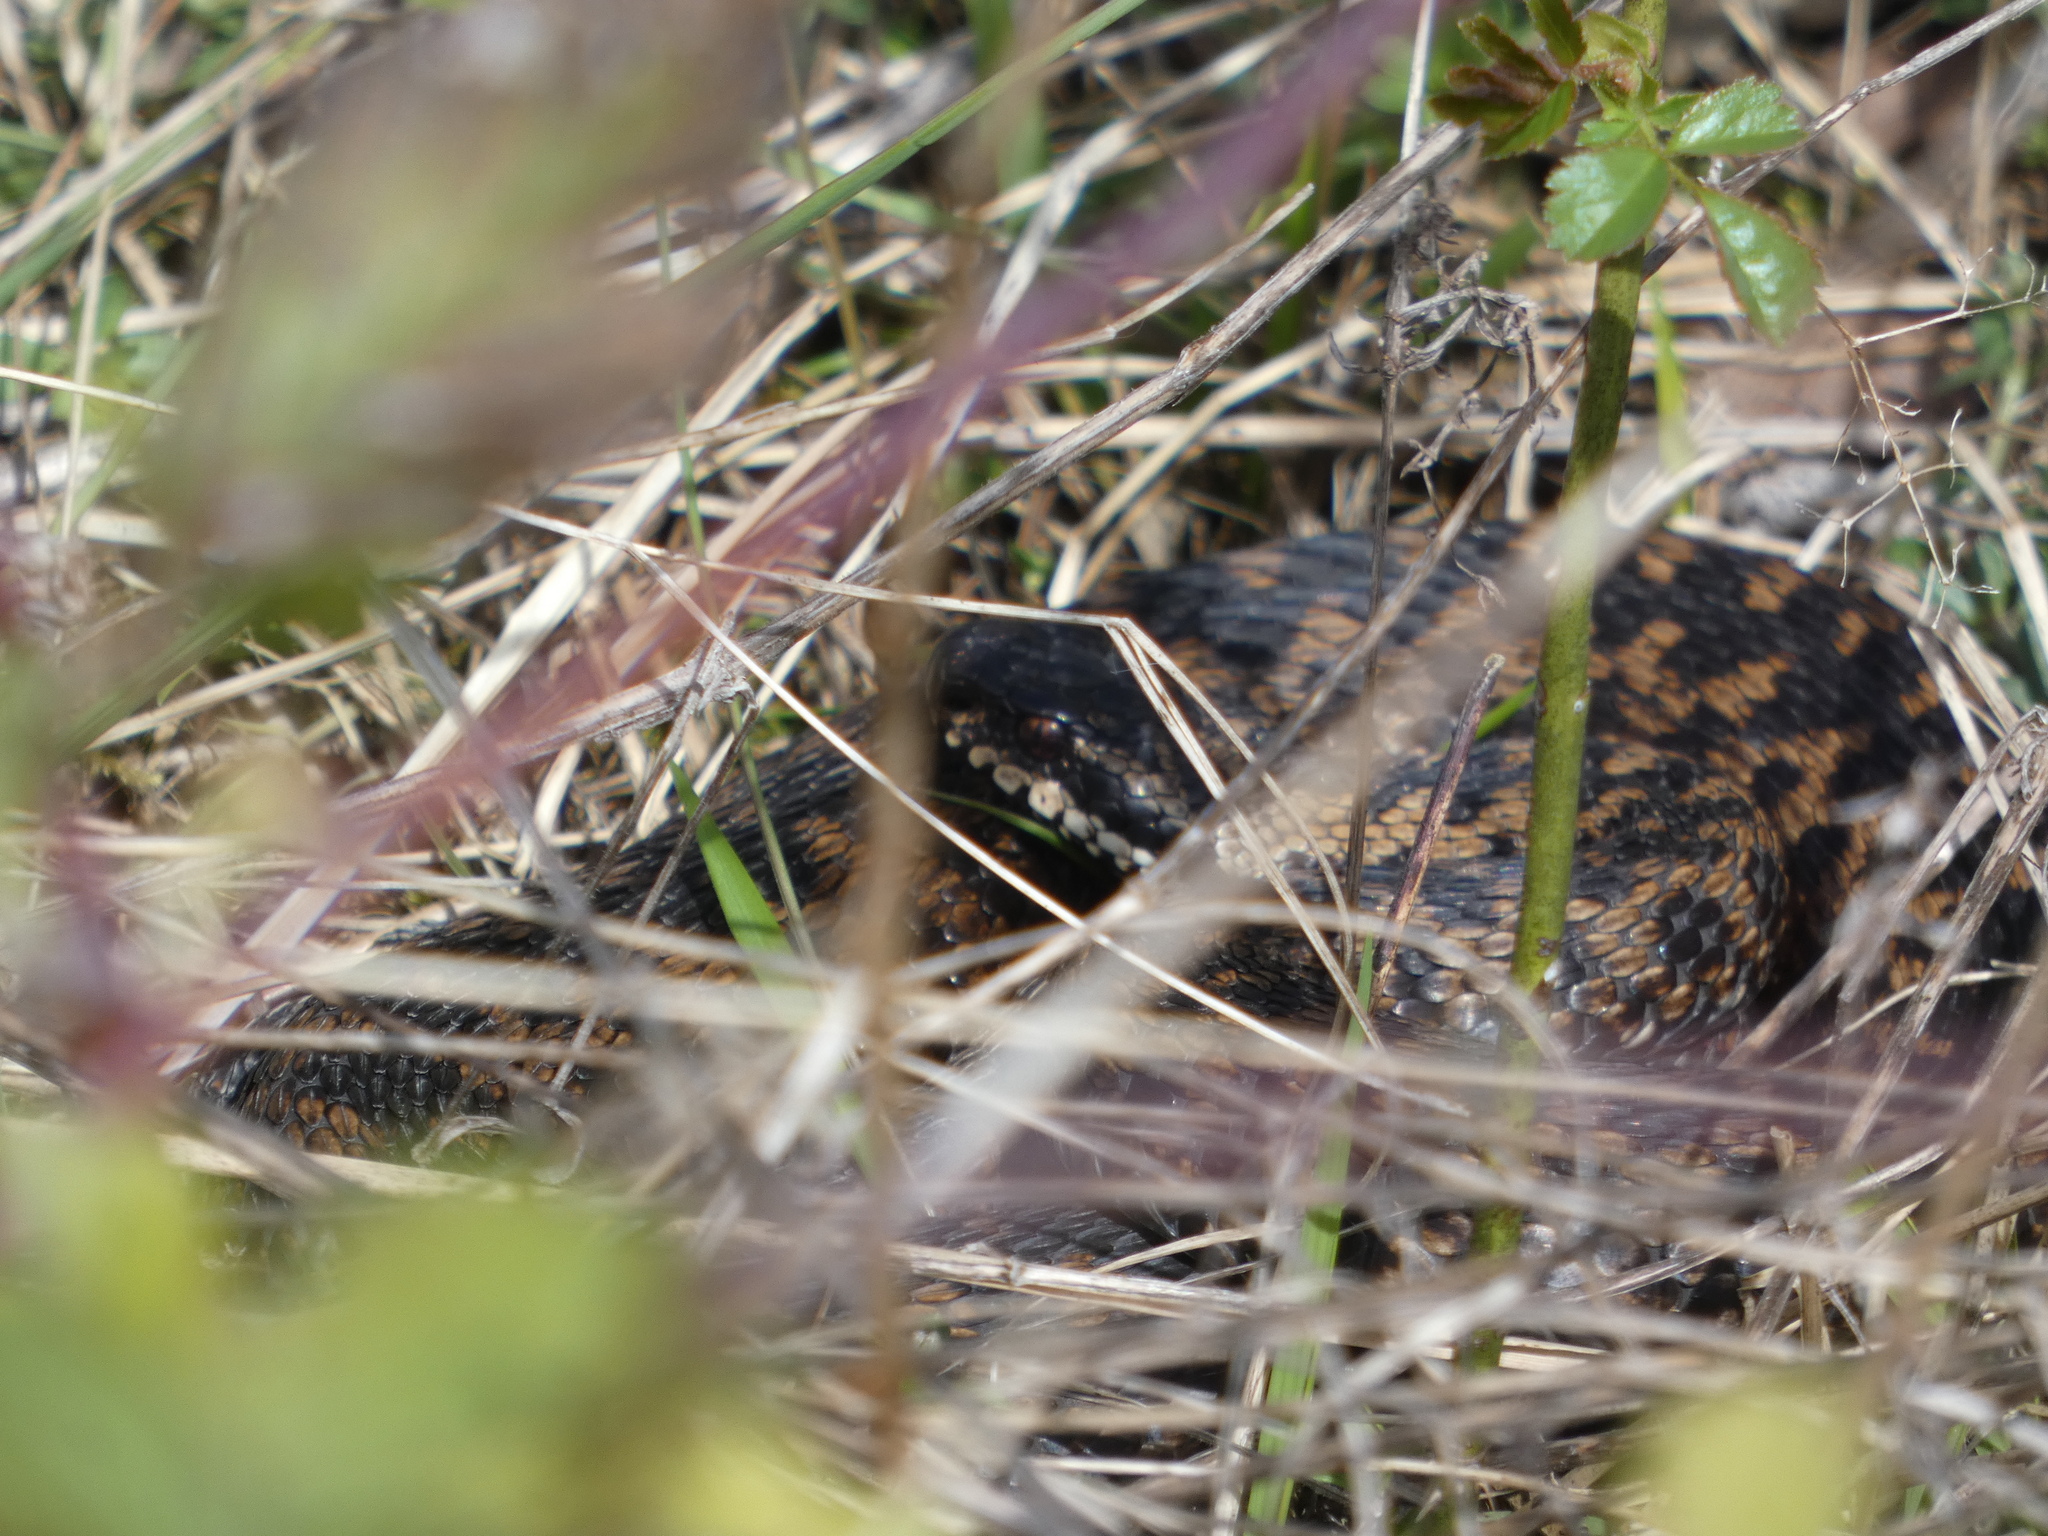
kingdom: Animalia
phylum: Chordata
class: Squamata
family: Viperidae
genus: Vipera
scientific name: Vipera berus
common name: Adder
